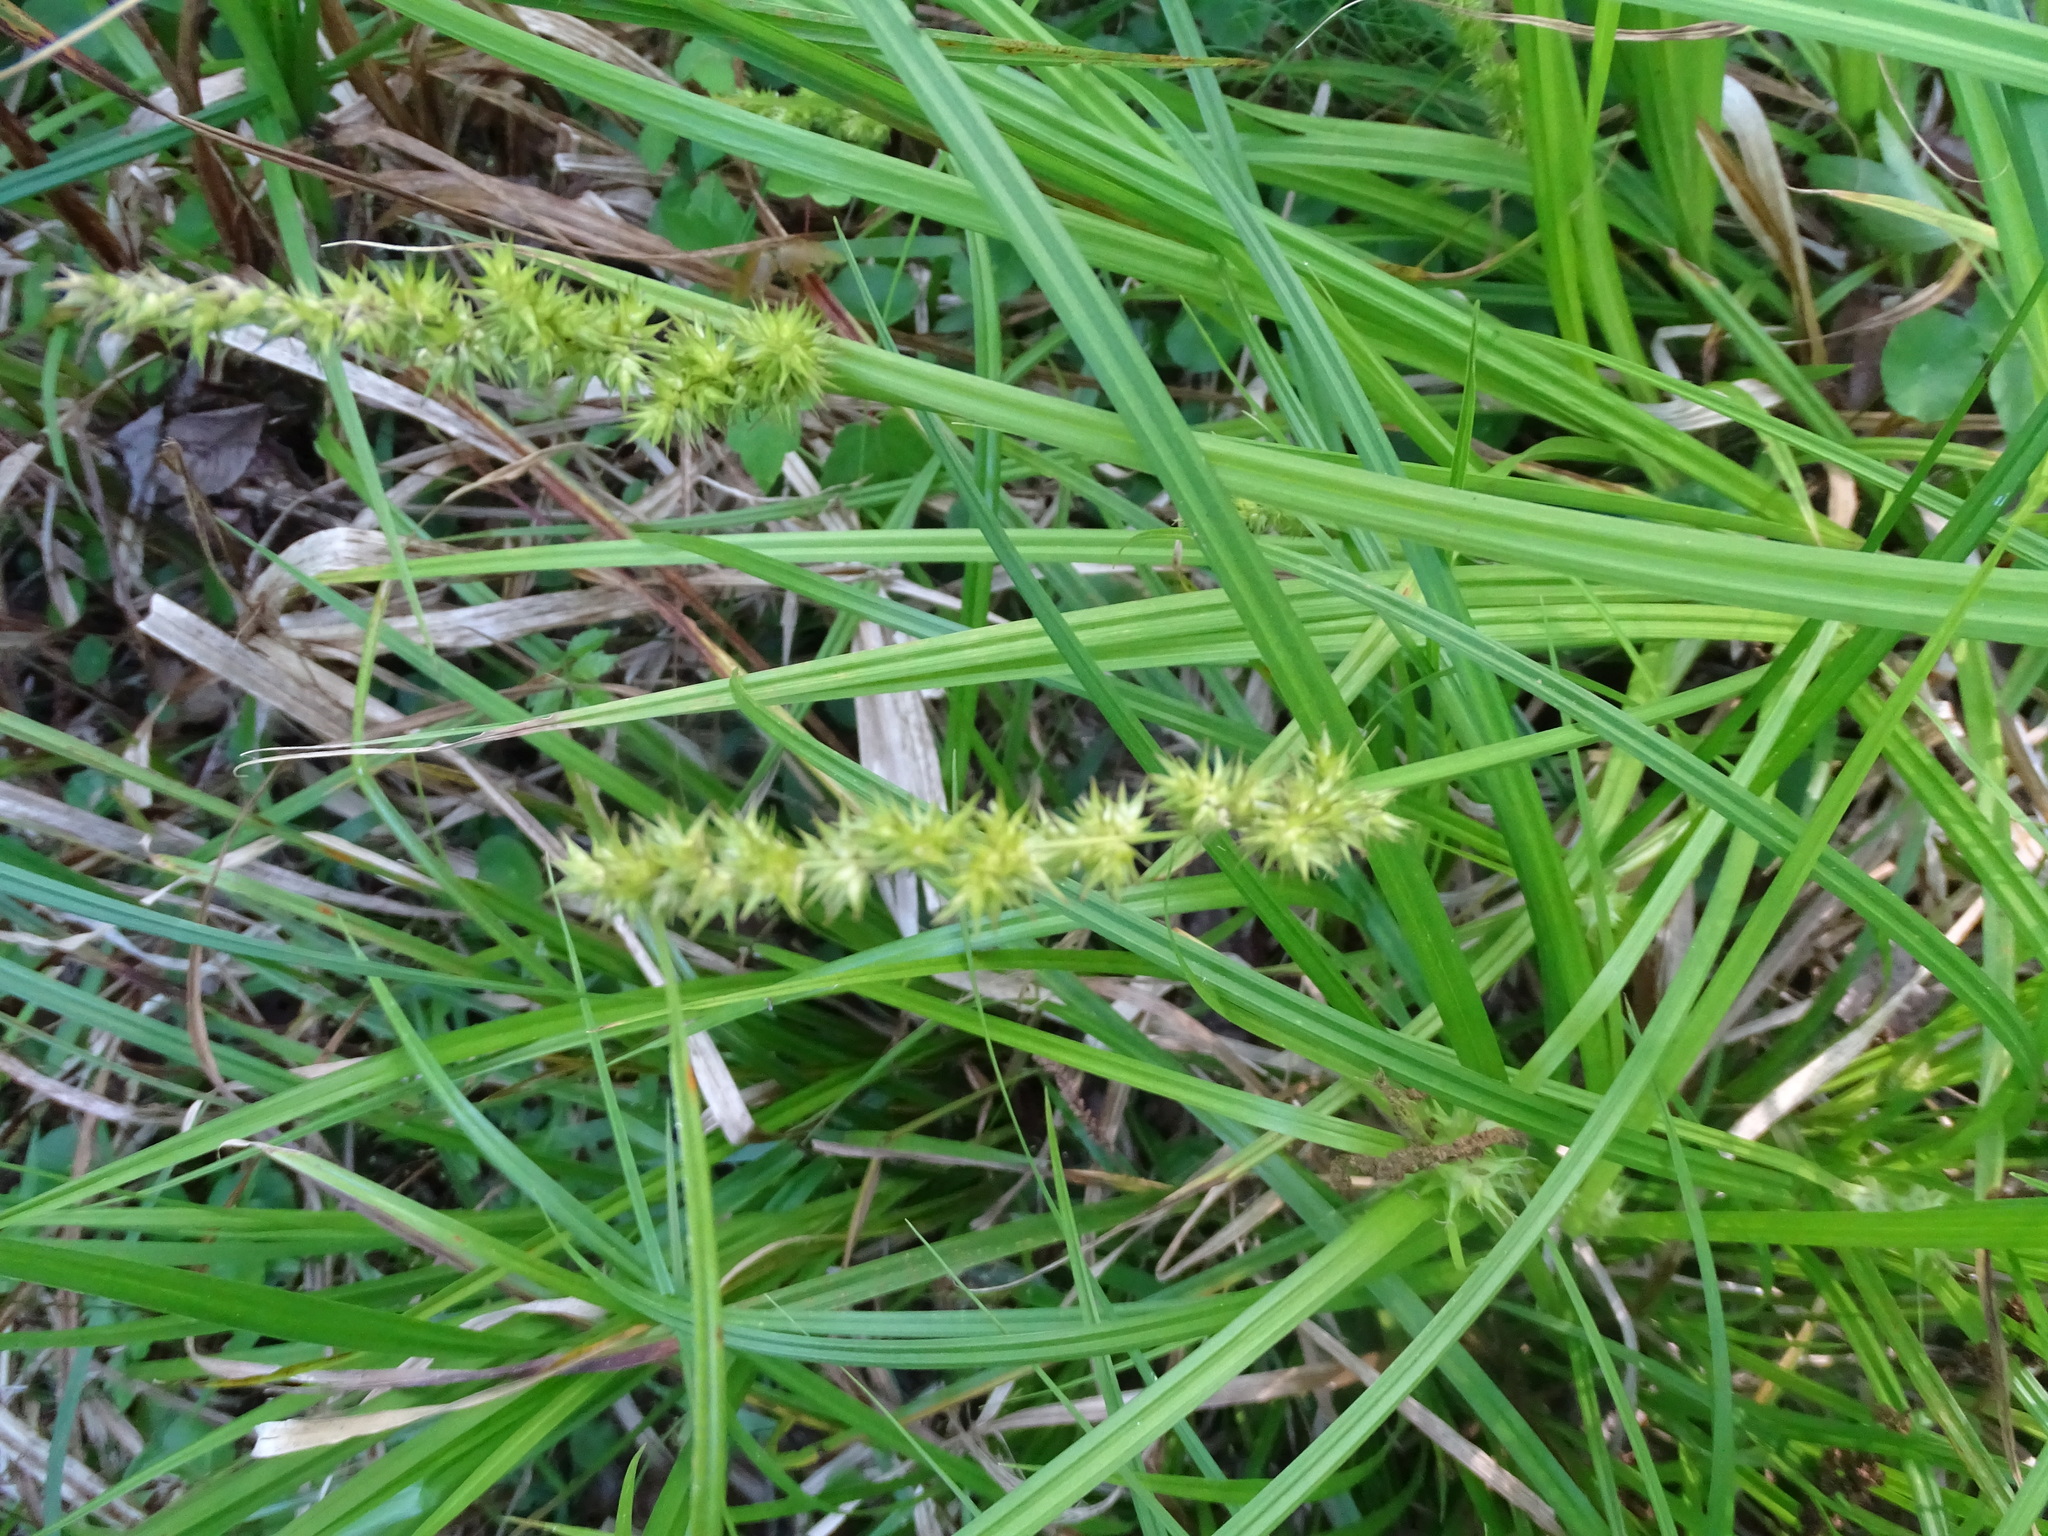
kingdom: Plantae
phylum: Tracheophyta
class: Liliopsida
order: Poales
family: Cyperaceae
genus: Carex
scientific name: Carex stipata
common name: Awl-fruited sedge
